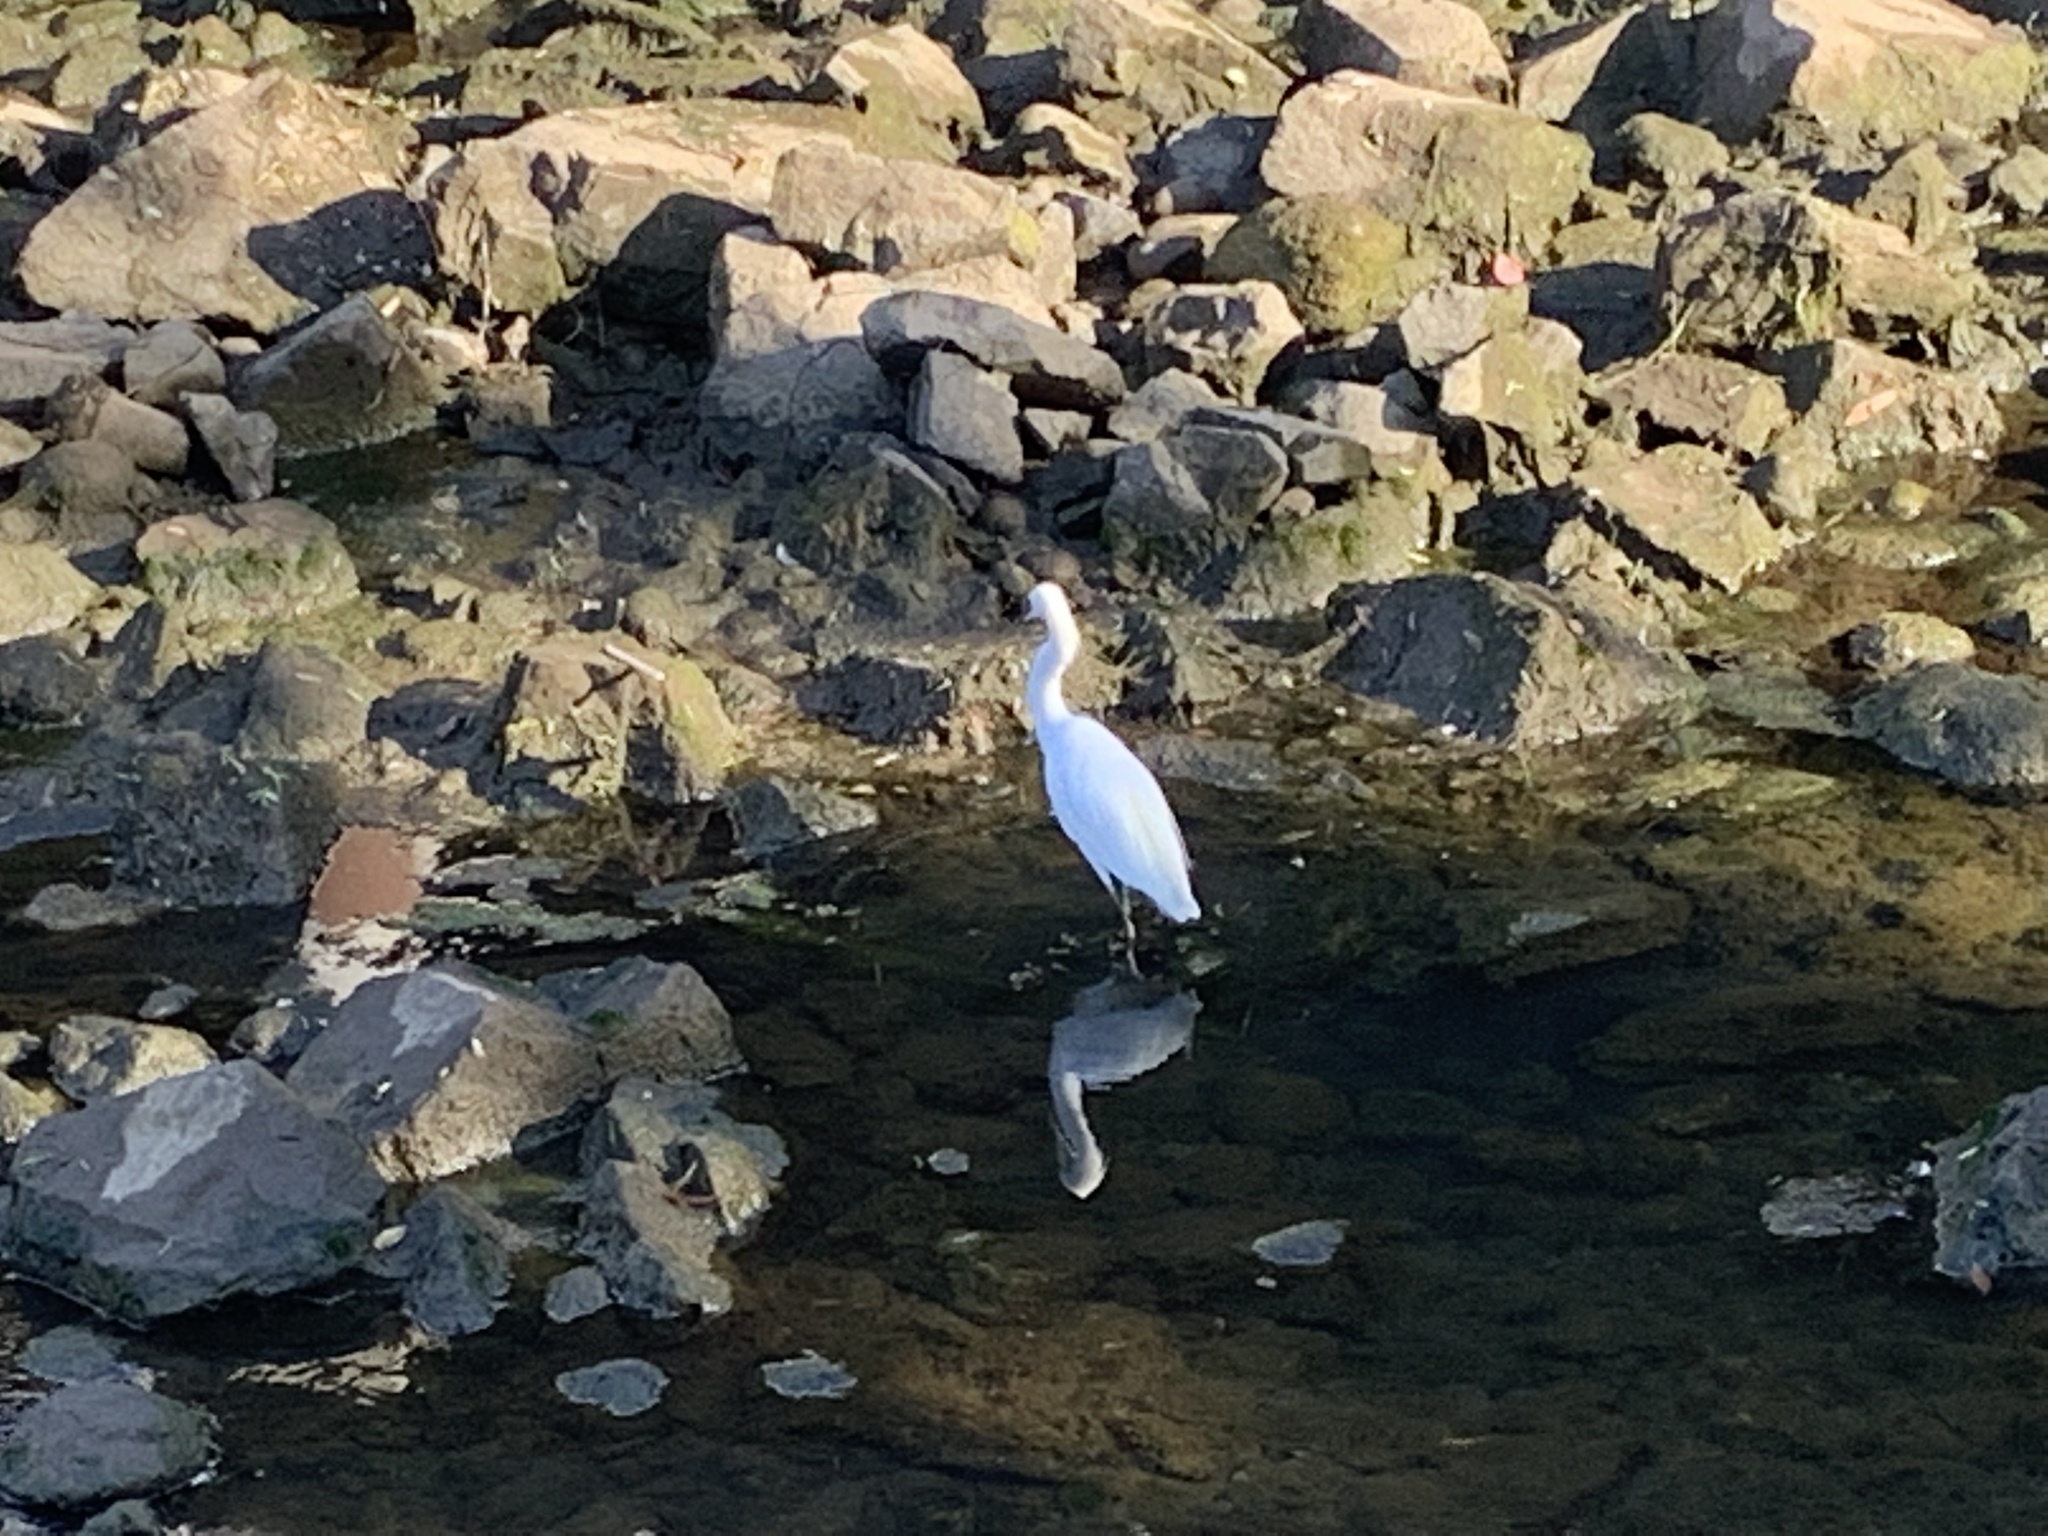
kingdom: Animalia
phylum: Chordata
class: Aves
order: Pelecaniformes
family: Ardeidae
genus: Egretta
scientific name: Egretta thula
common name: Snowy egret
